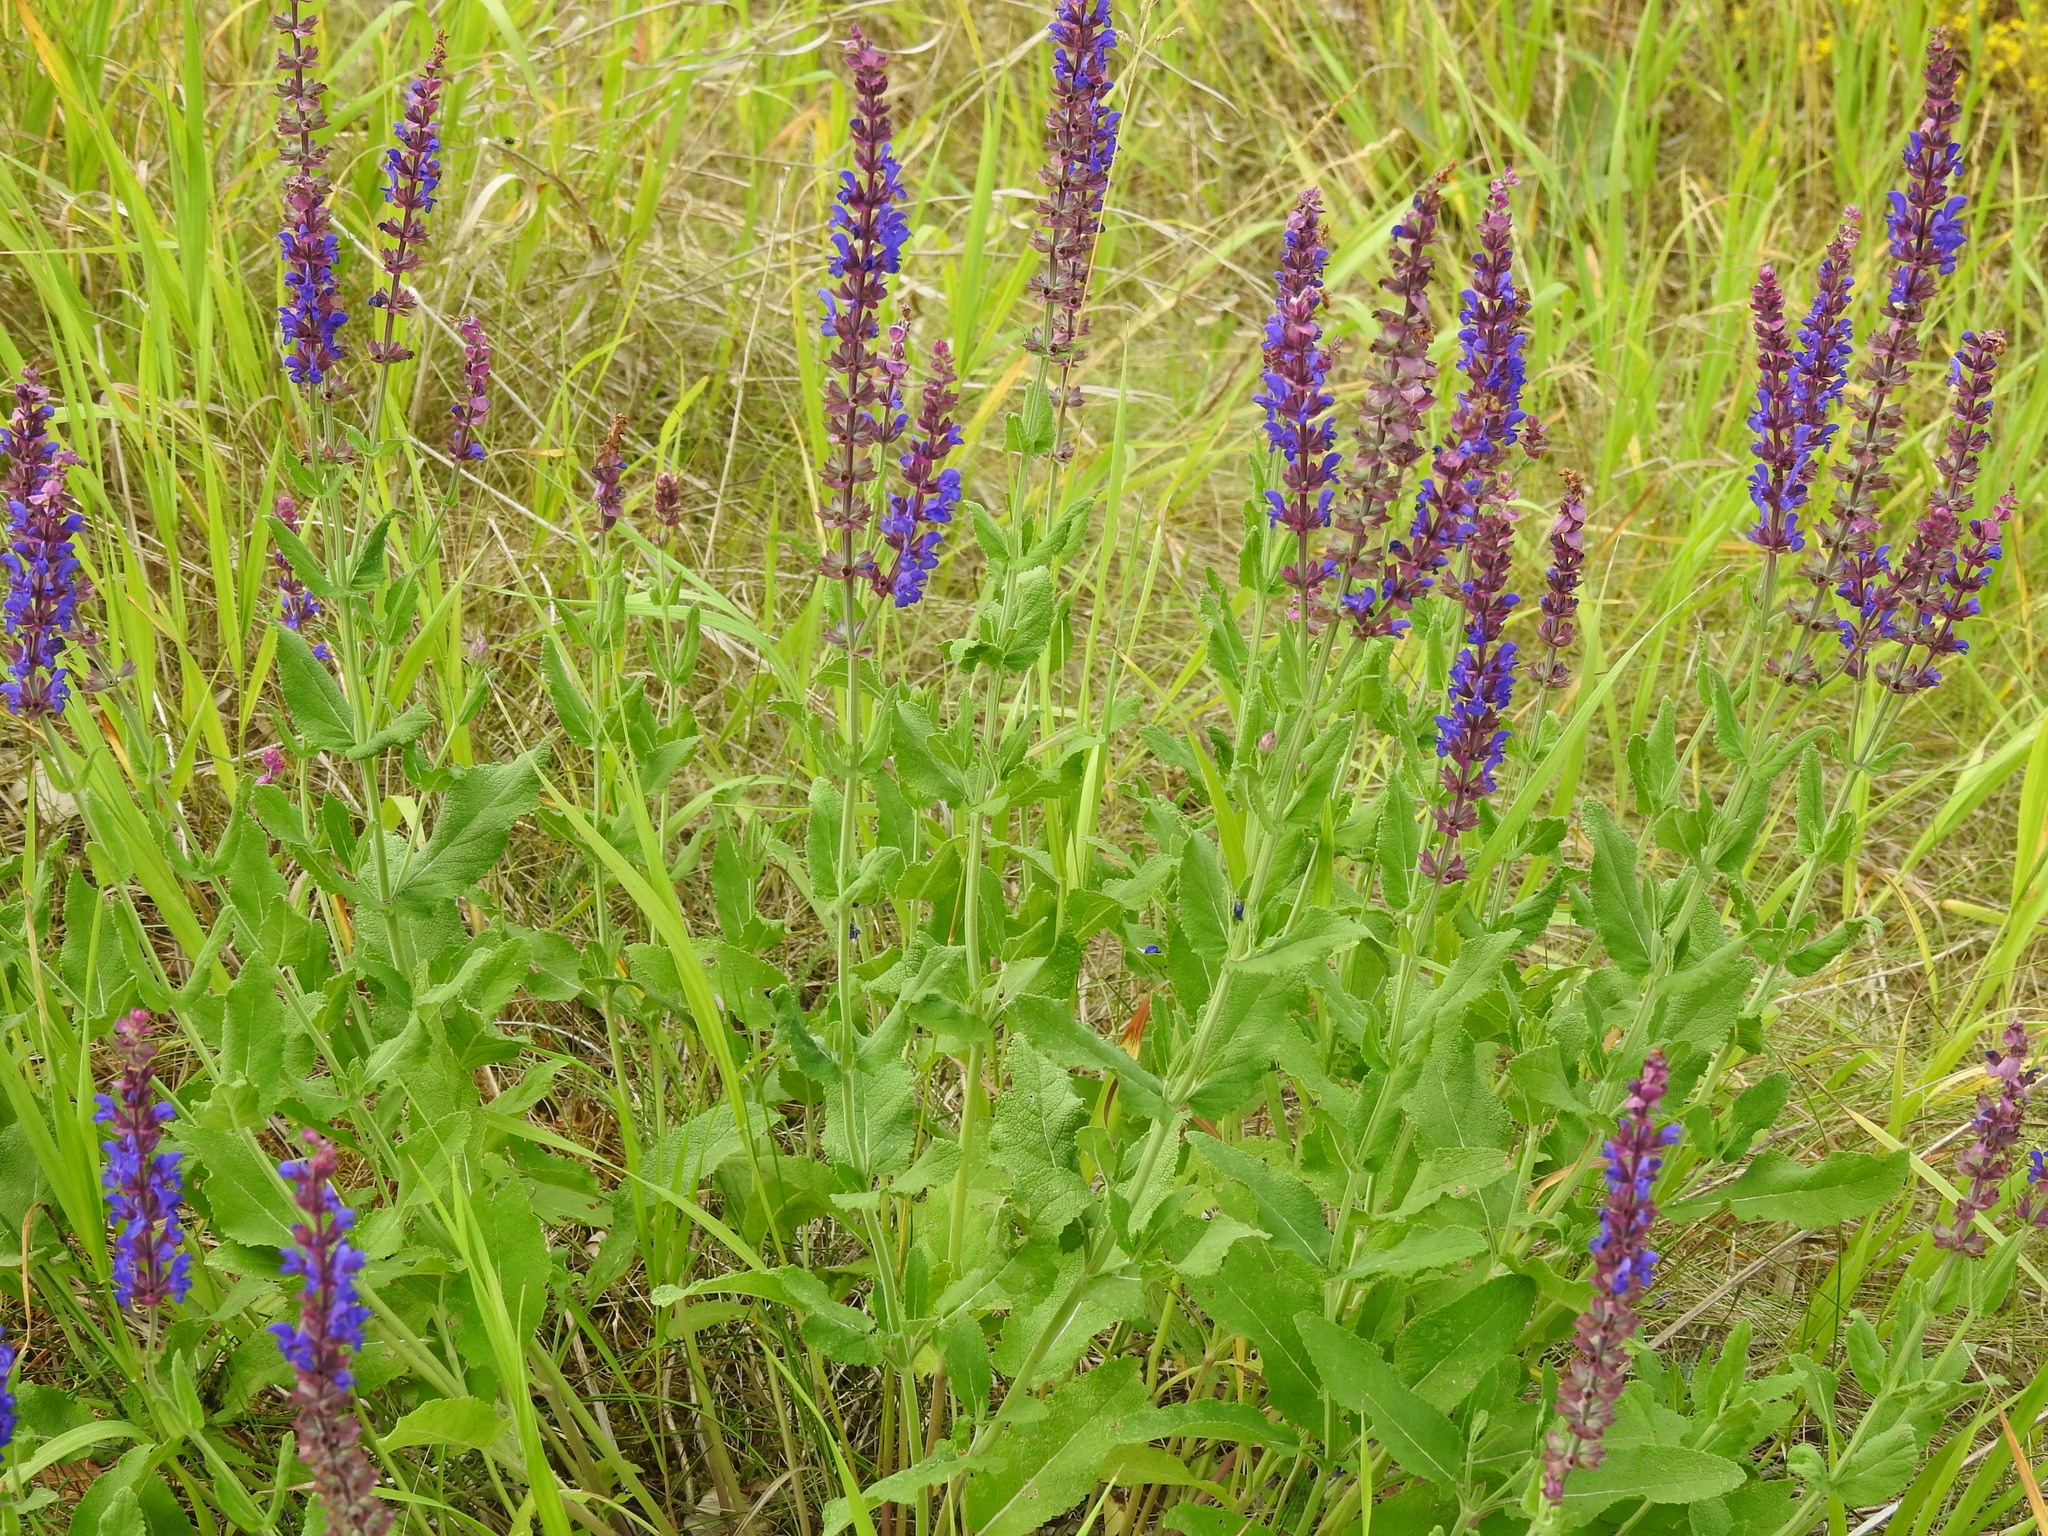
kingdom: Plantae
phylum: Tracheophyta
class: Magnoliopsida
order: Lamiales
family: Lamiaceae
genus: Salvia
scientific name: Salvia nemorosa
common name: Balkan clary
